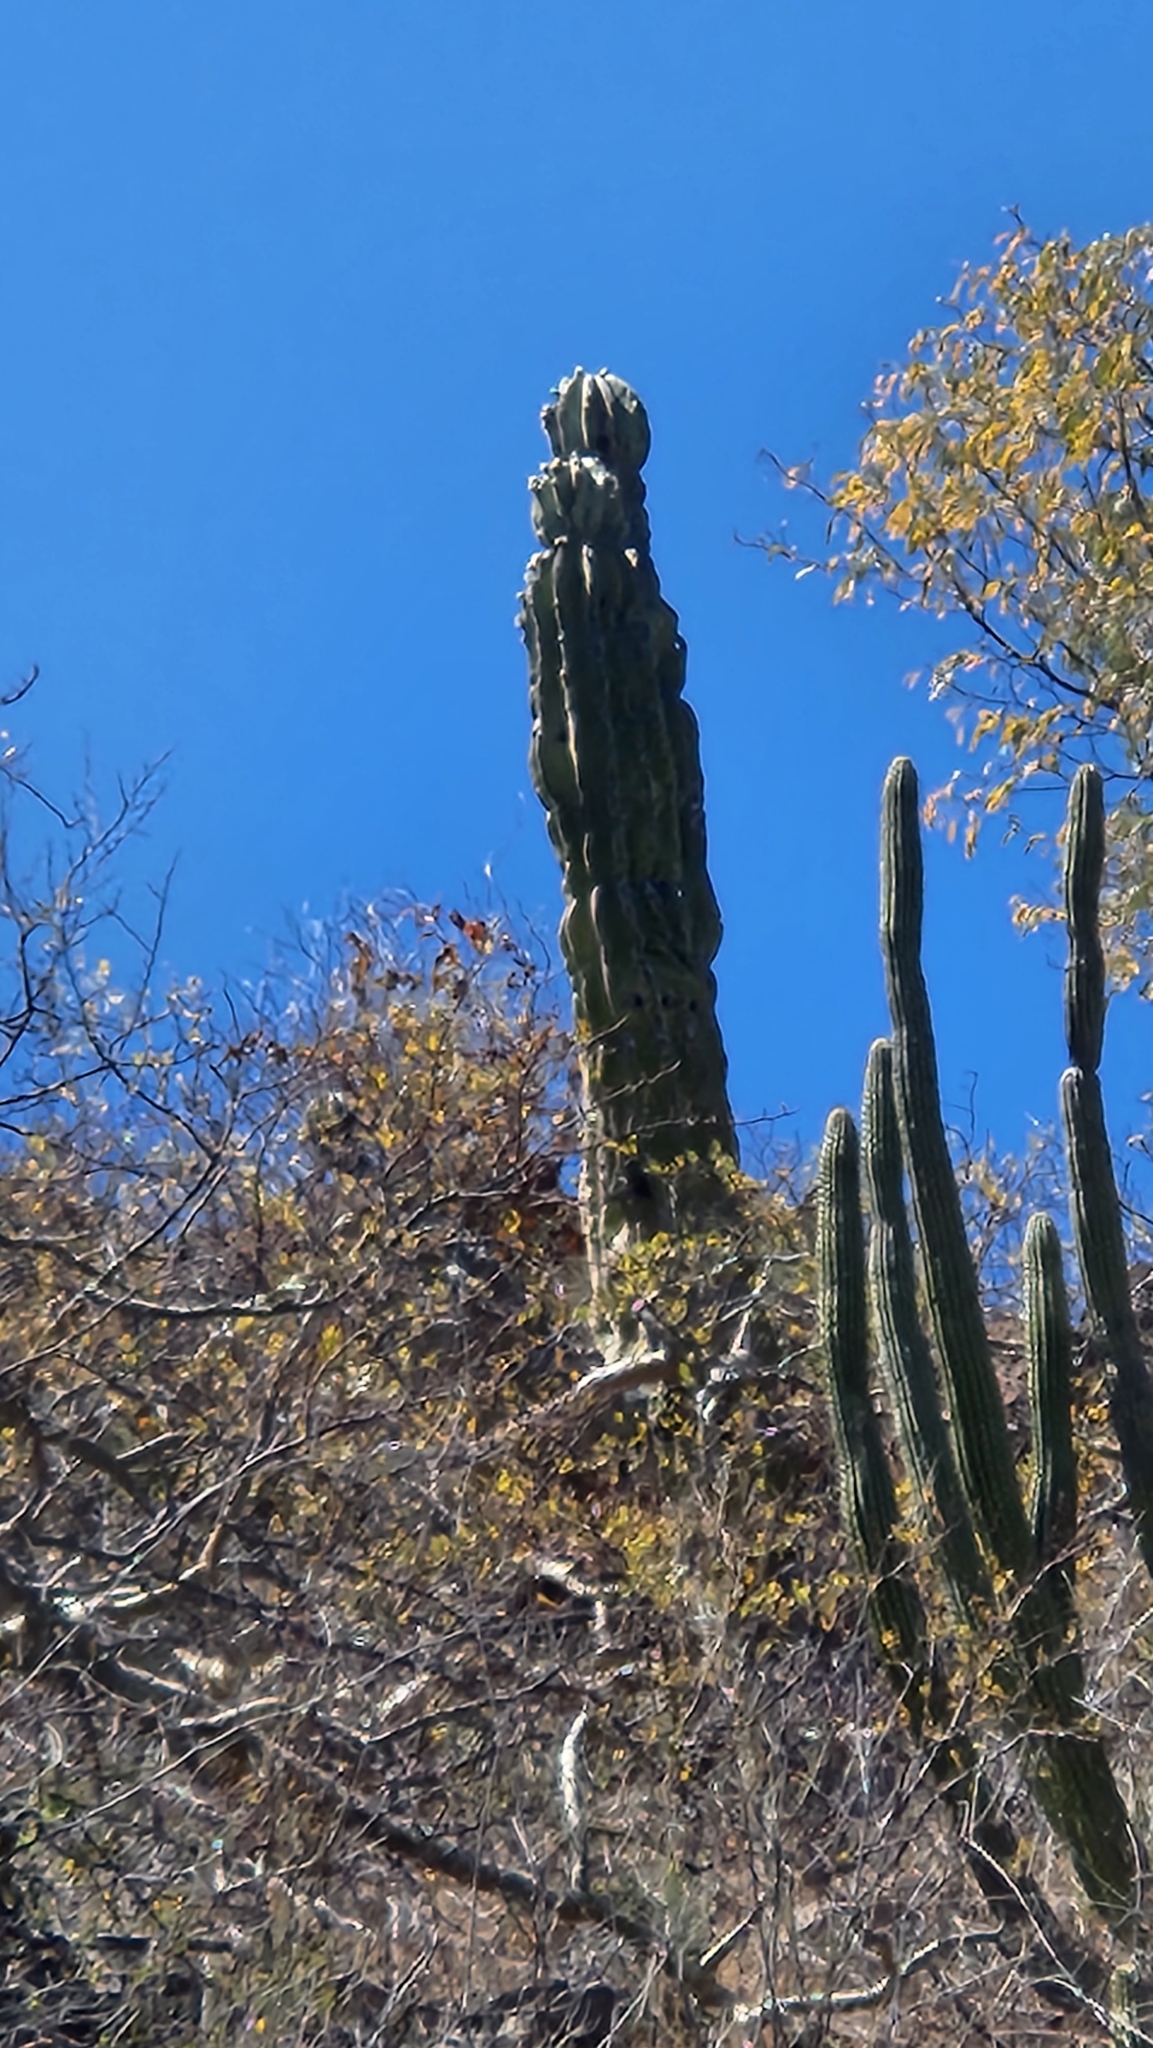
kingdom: Plantae
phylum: Tracheophyta
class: Magnoliopsida
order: Caryophyllales
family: Cactaceae
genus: Pachycereus
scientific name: Pachycereus pringlei
